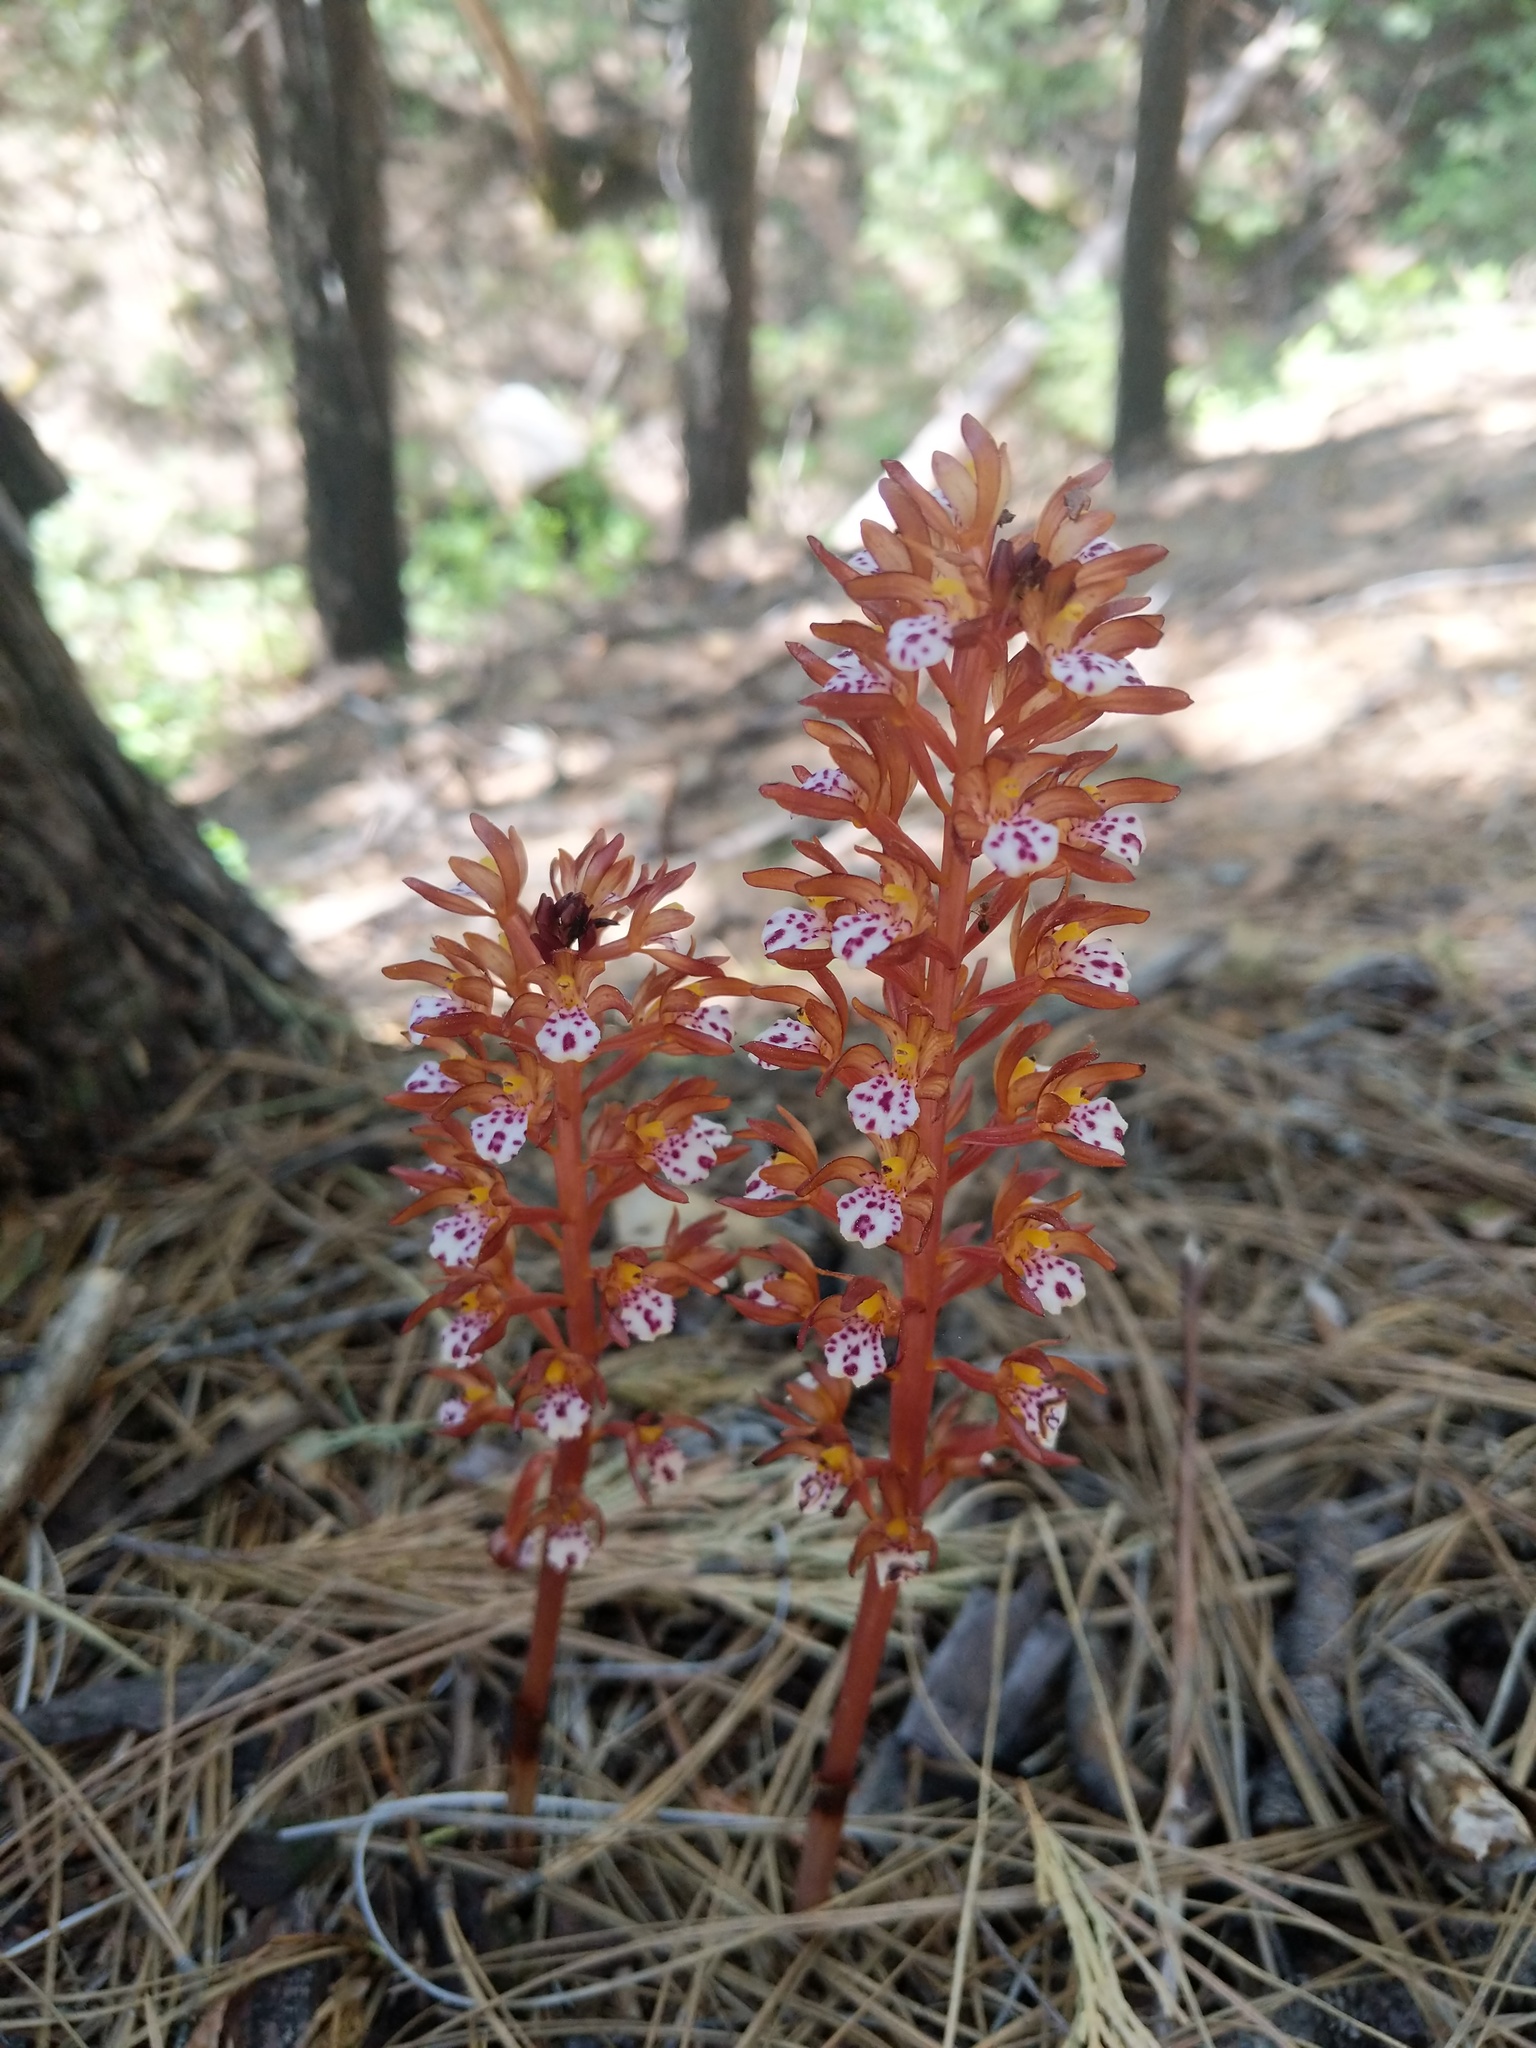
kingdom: Plantae
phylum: Tracheophyta
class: Liliopsida
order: Asparagales
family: Orchidaceae
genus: Corallorhiza
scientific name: Corallorhiza maculata
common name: Spotted coralroot
